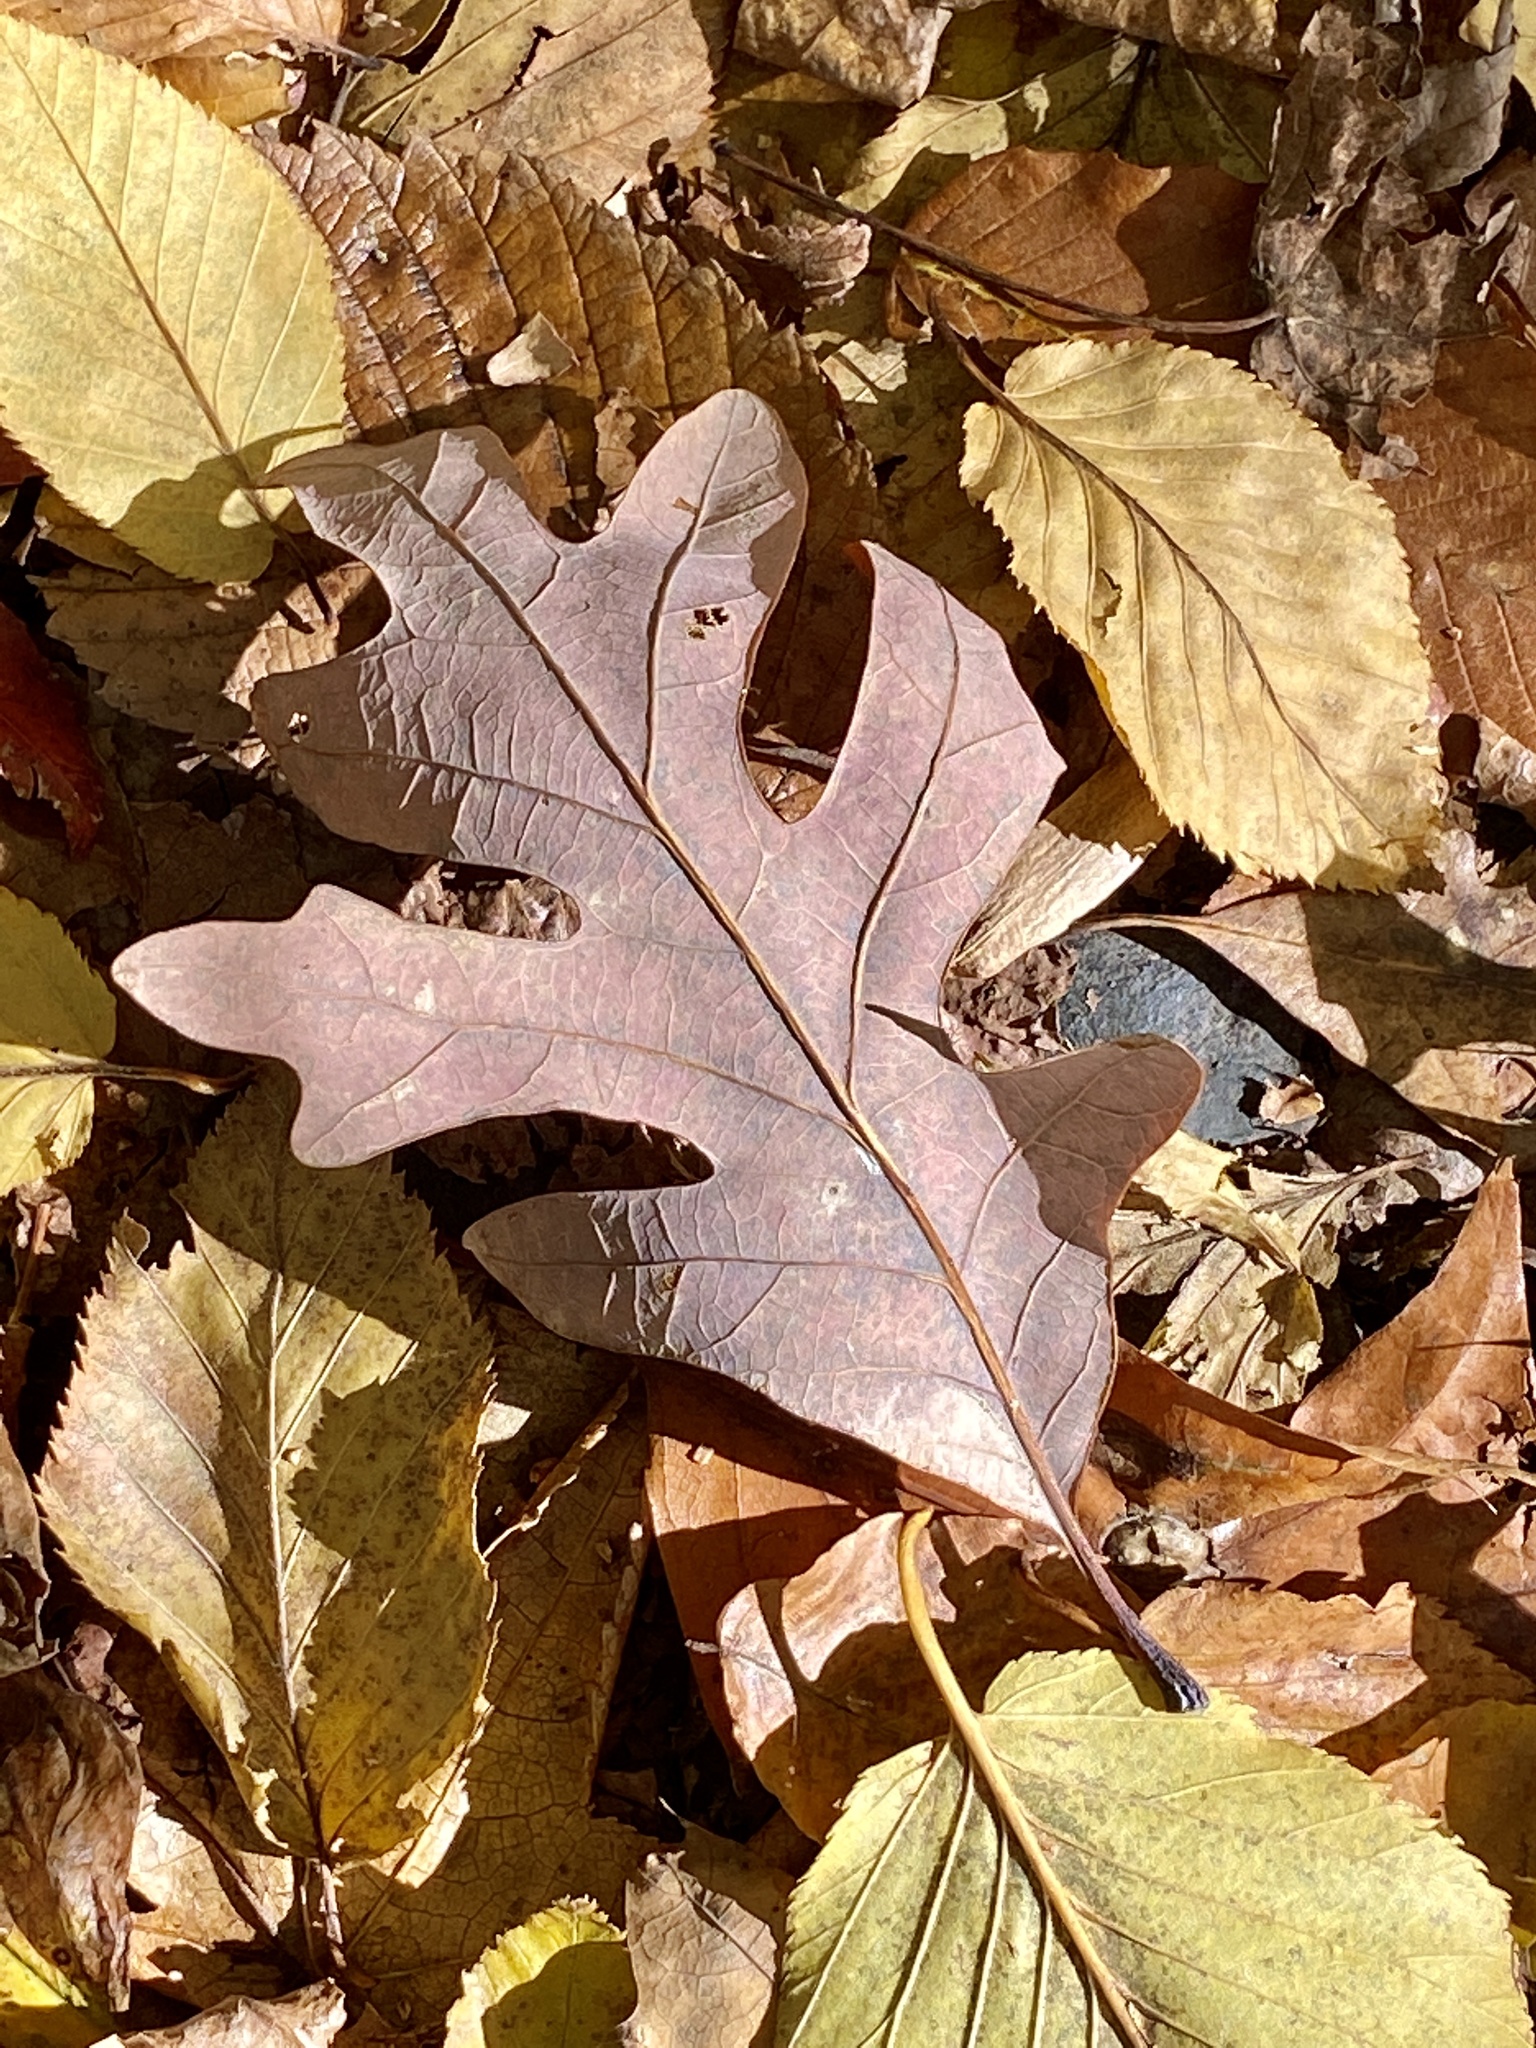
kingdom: Plantae
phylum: Tracheophyta
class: Magnoliopsida
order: Fagales
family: Fagaceae
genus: Quercus
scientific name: Quercus alba
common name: White oak
